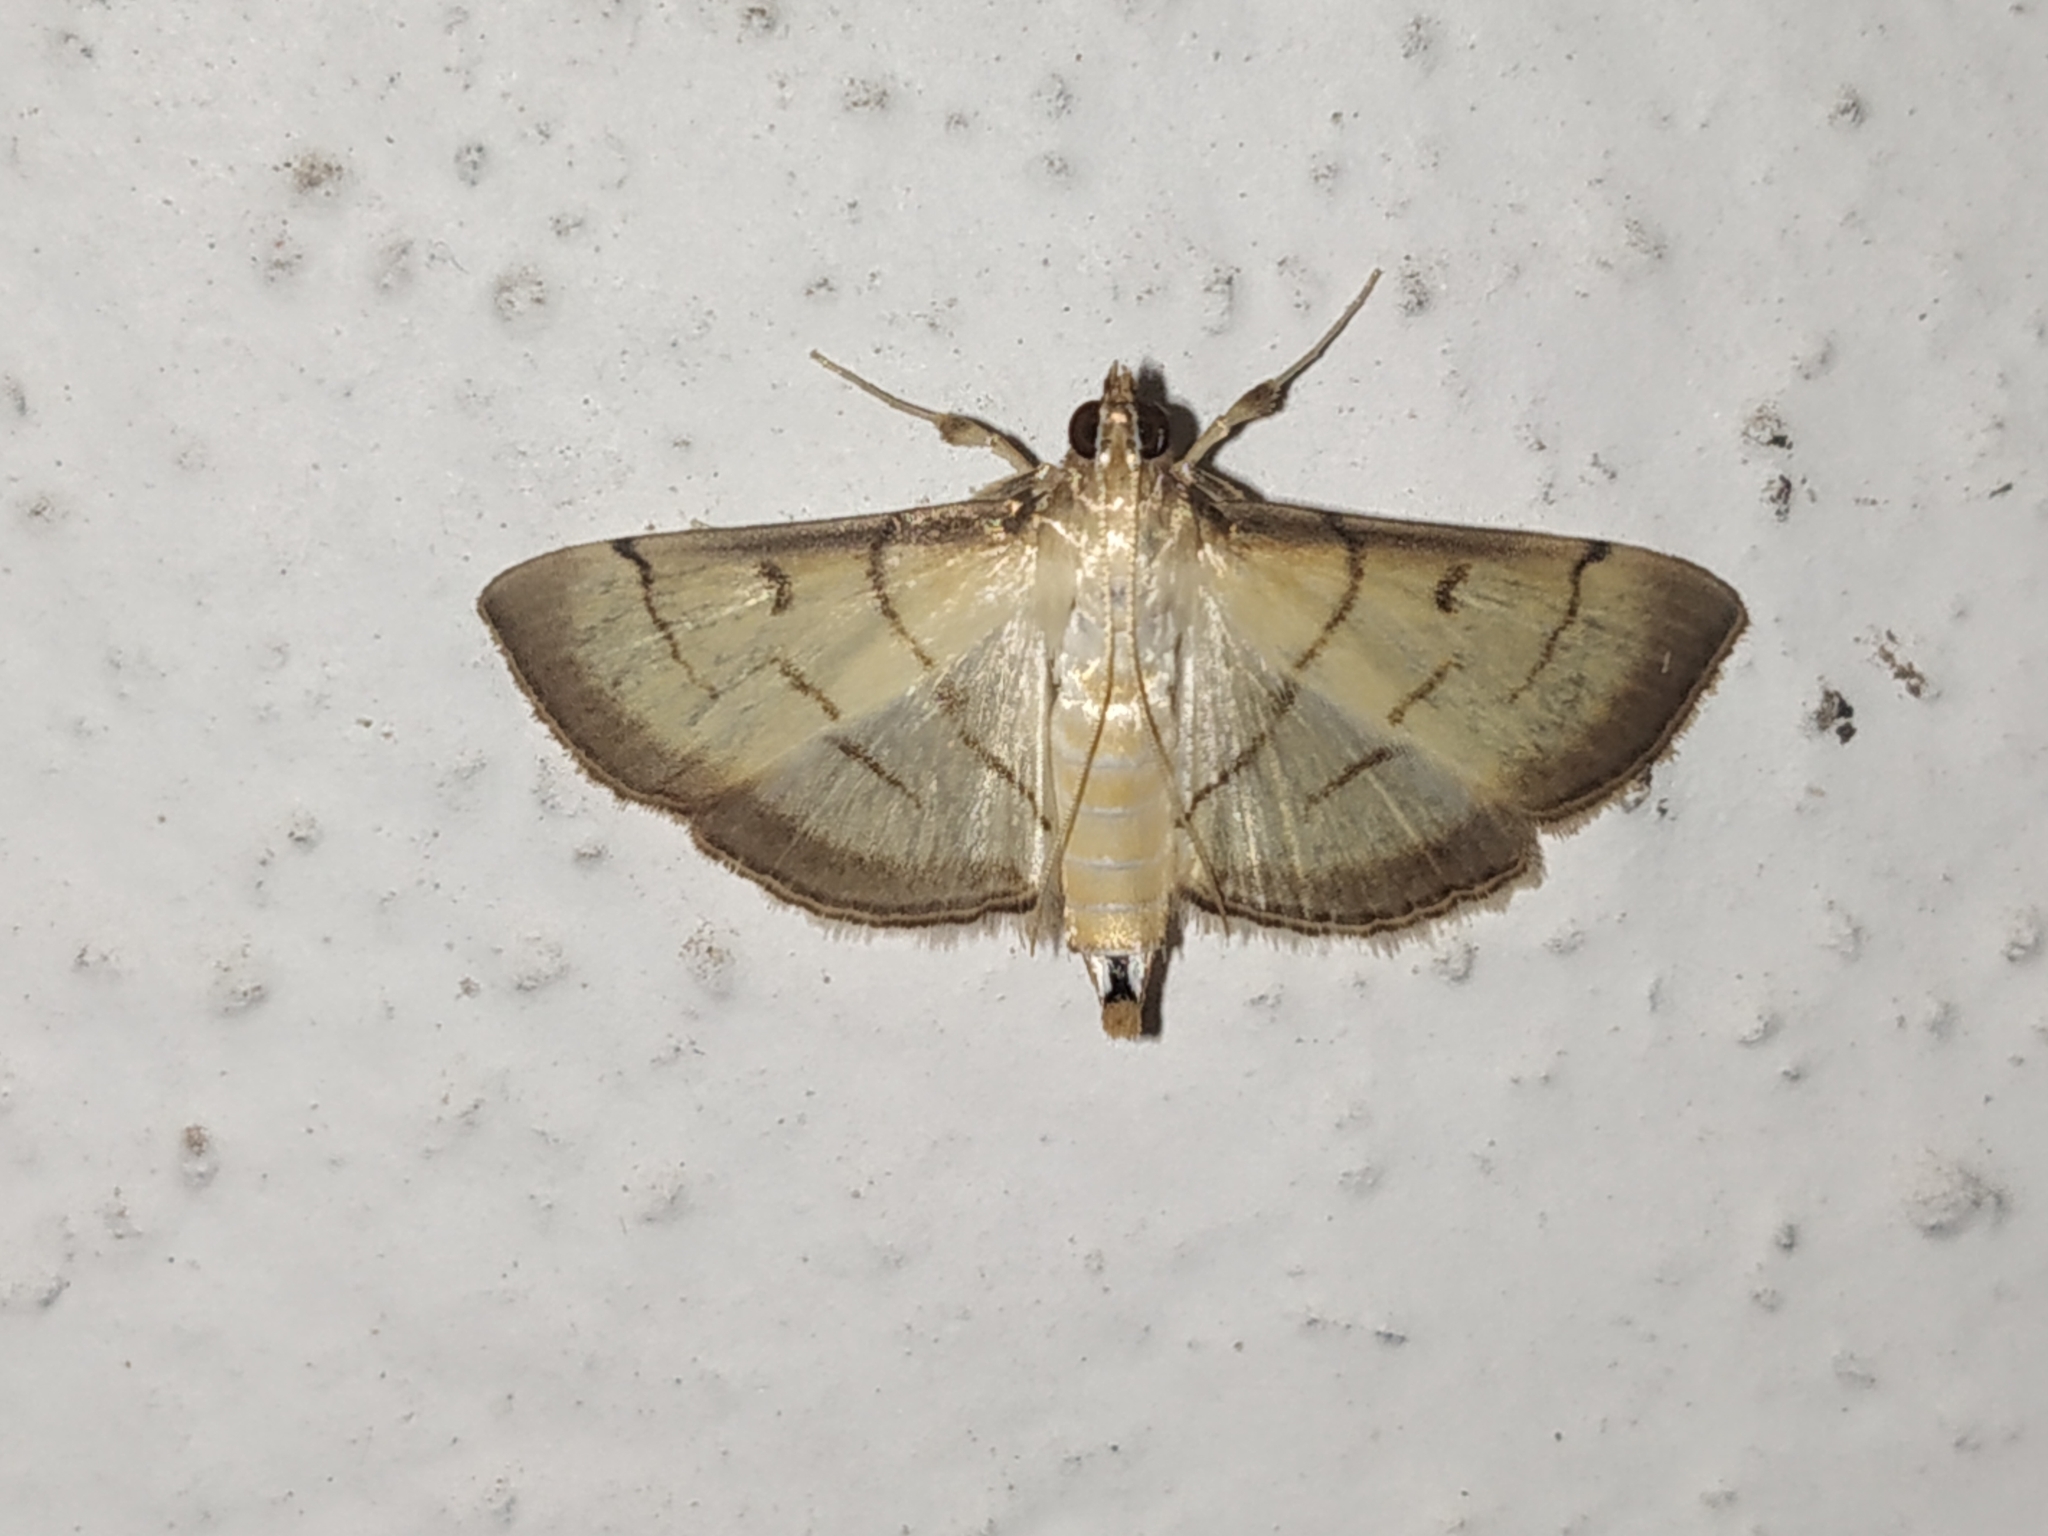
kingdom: Animalia
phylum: Arthropoda
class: Insecta
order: Lepidoptera
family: Crambidae
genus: Cnaphalocrocis
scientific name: Cnaphalocrocis patnalis
